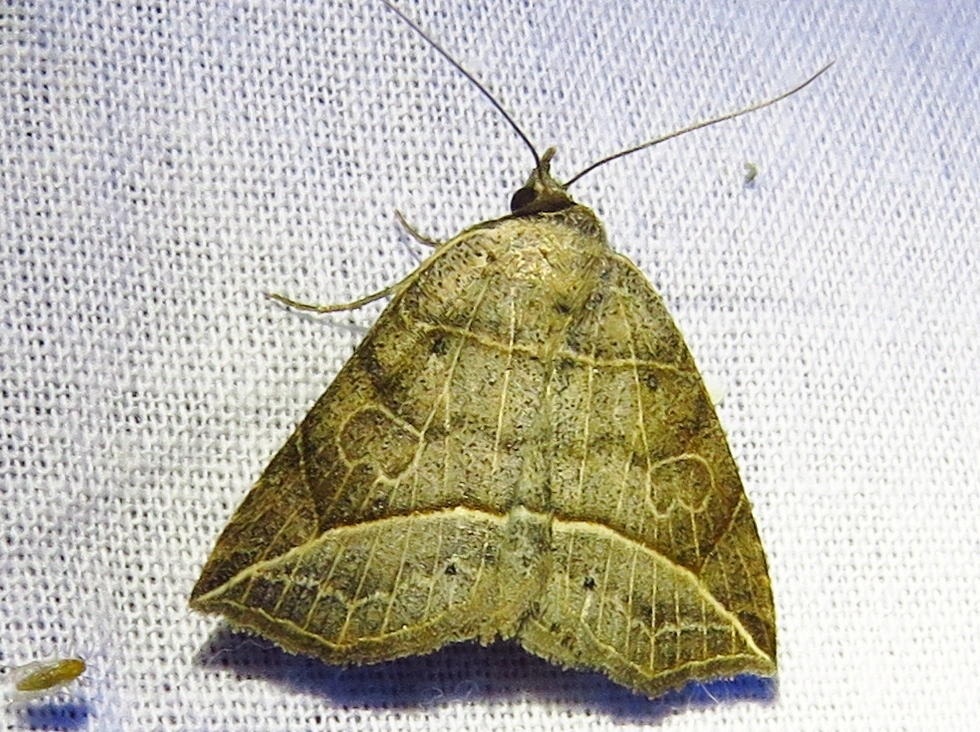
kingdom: Animalia
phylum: Arthropoda
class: Insecta
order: Lepidoptera
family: Erebidae
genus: Isogona
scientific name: Isogona tenuis
